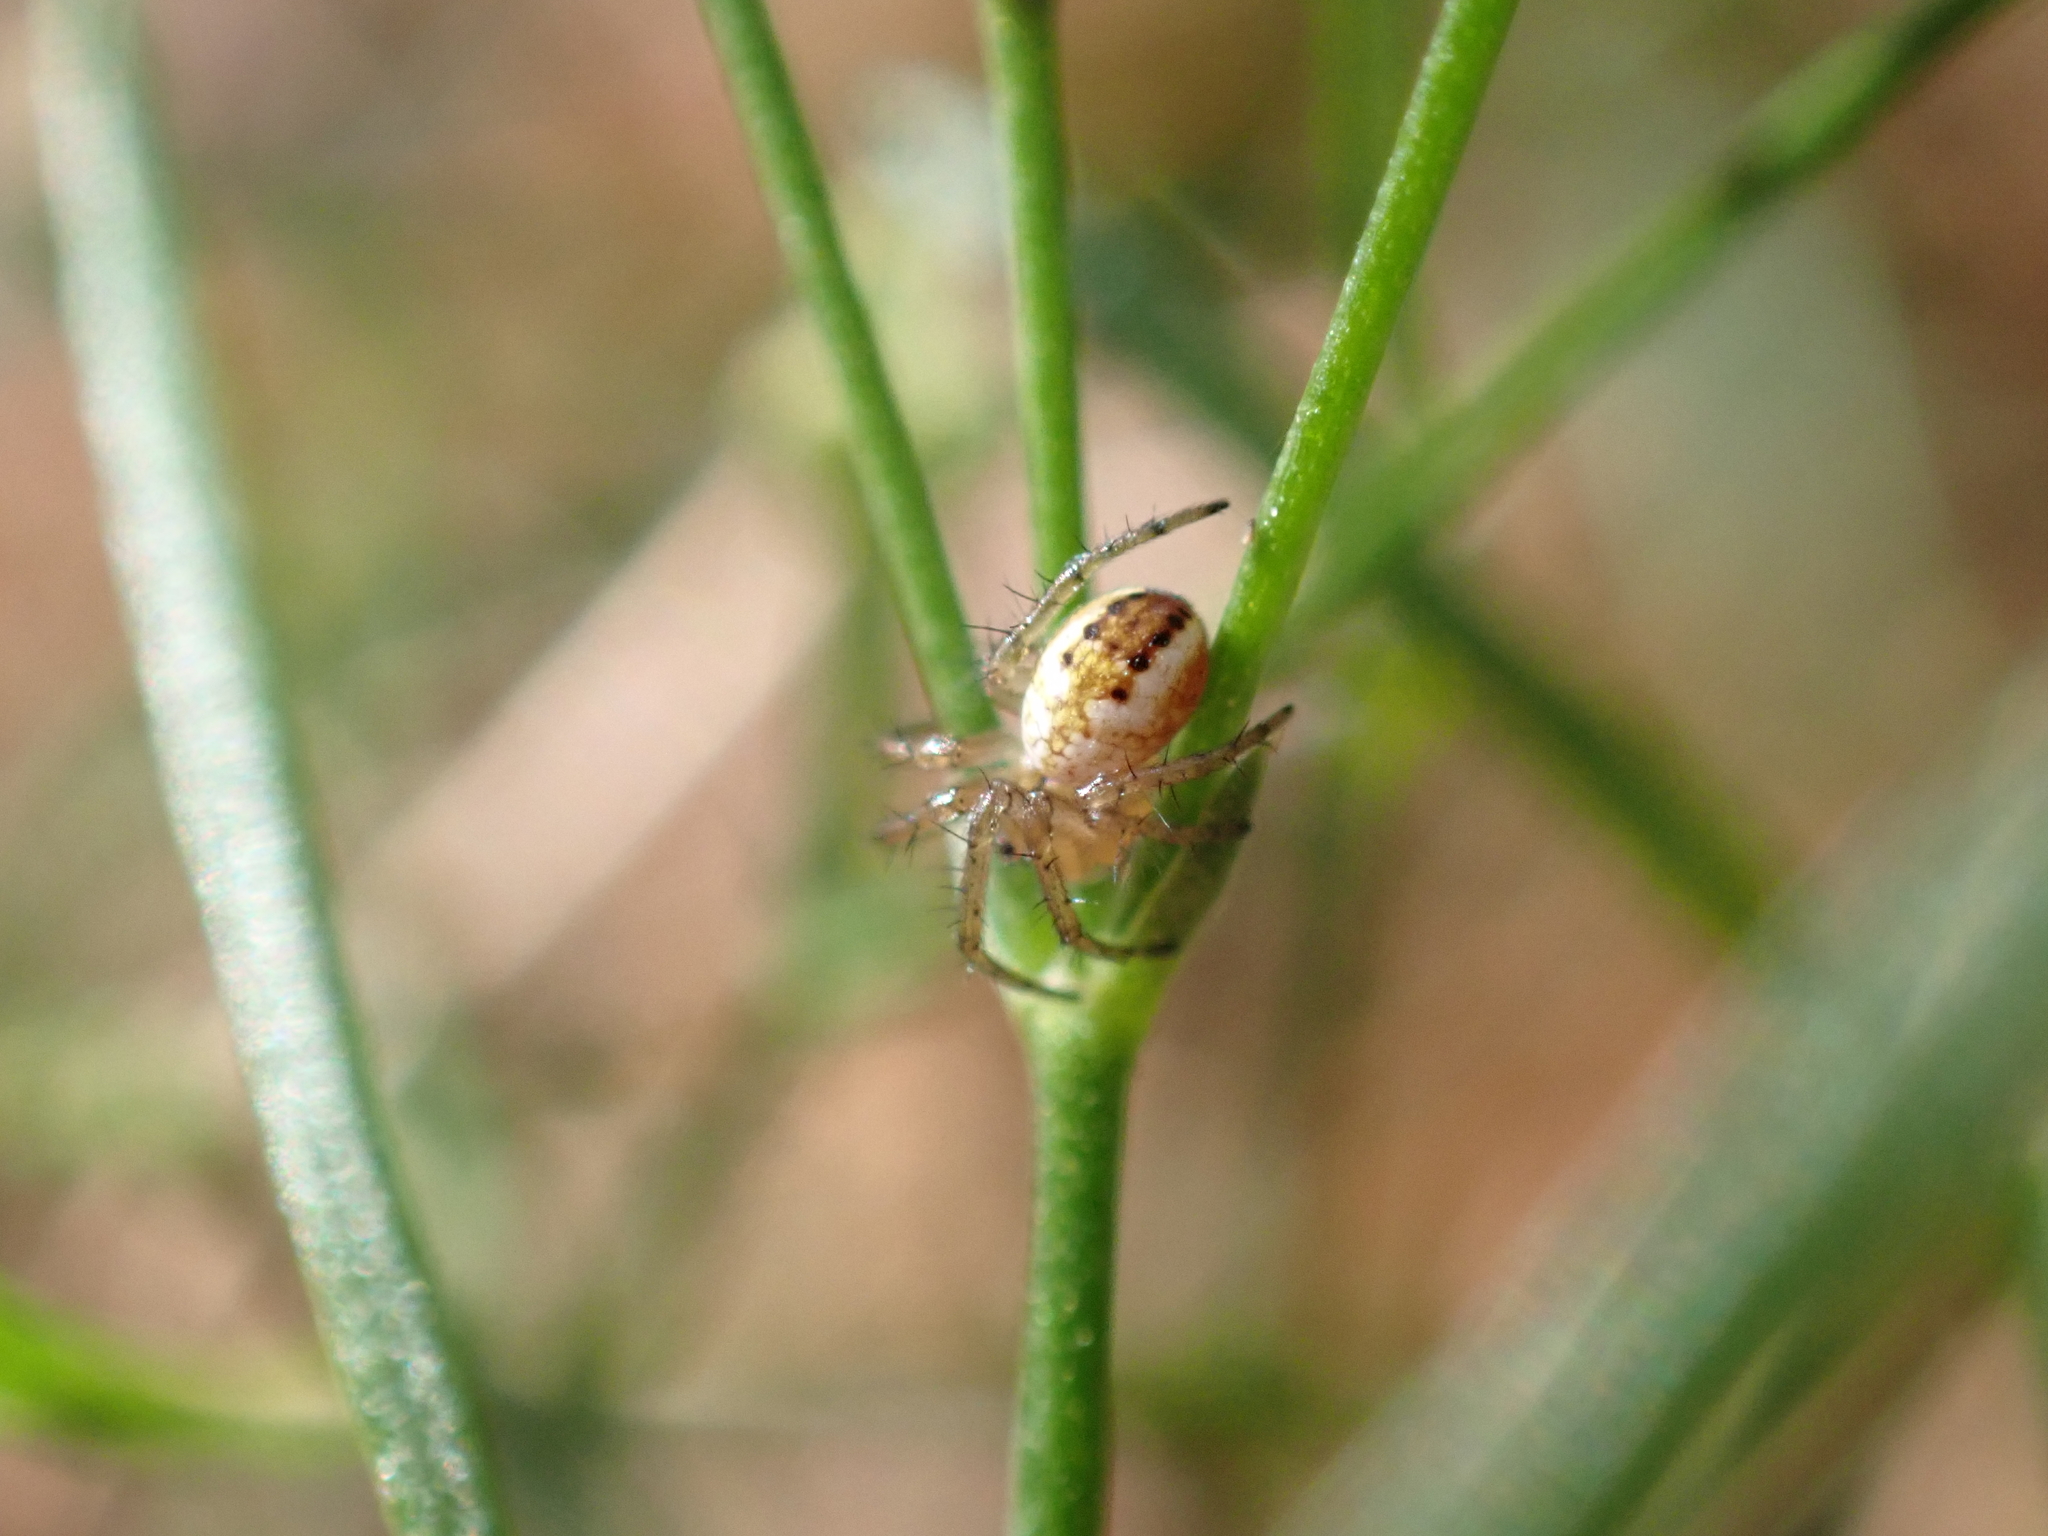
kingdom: Animalia
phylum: Arthropoda
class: Arachnida
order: Araneae
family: Araneidae
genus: Mangora
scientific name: Mangora acalypha
